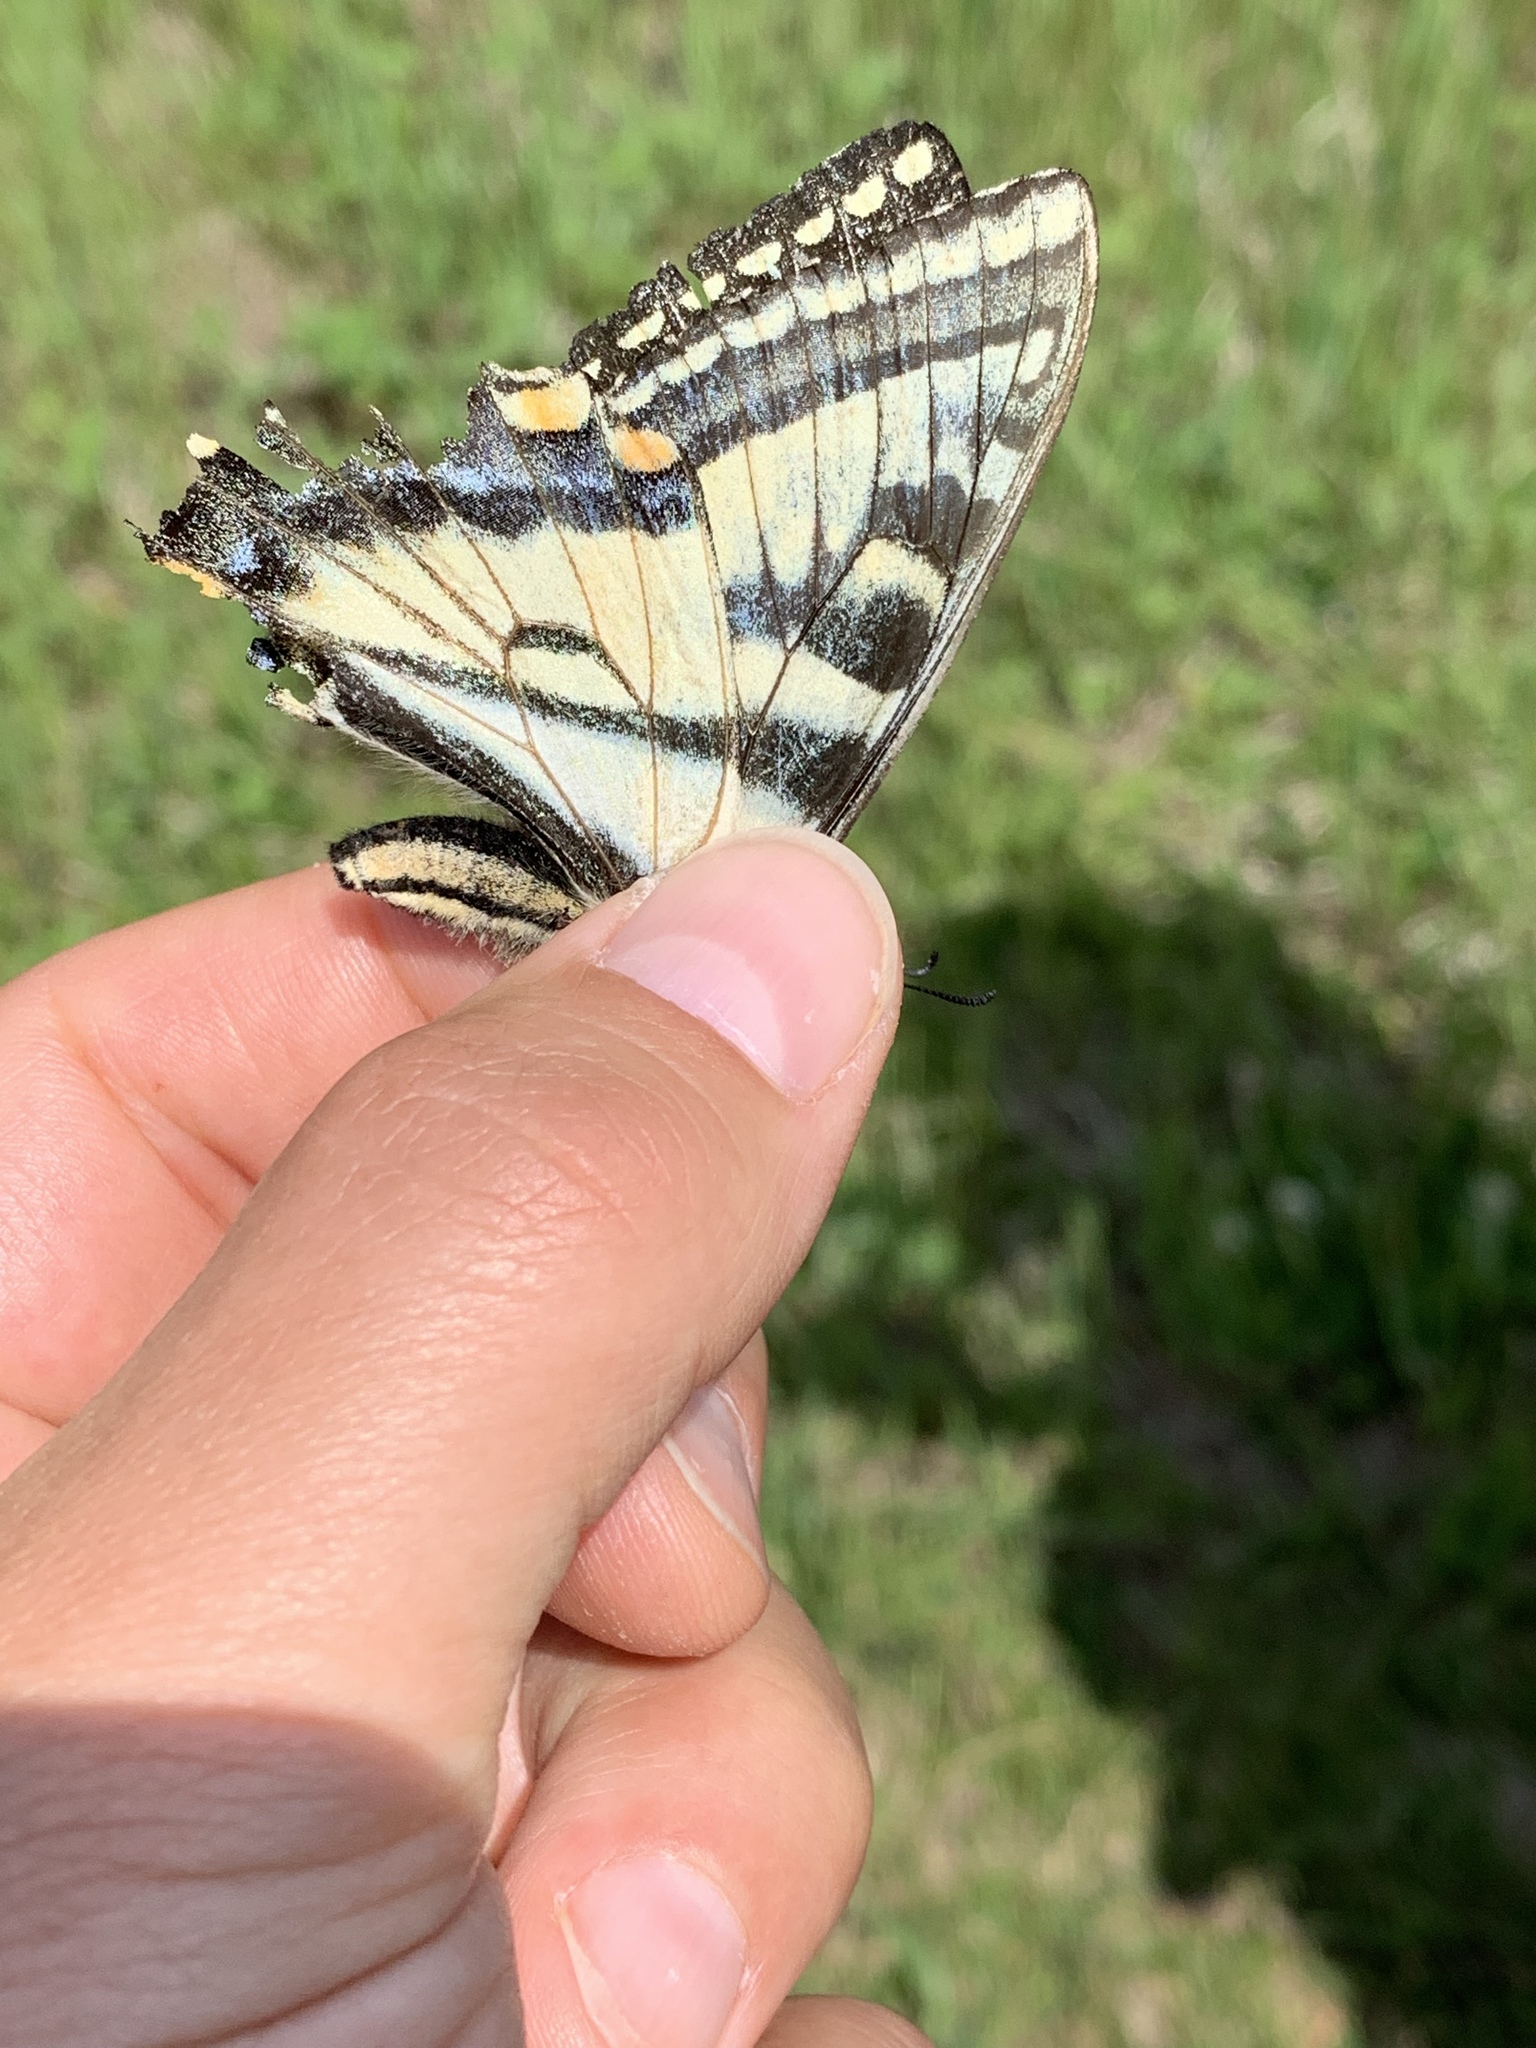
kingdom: Animalia
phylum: Arthropoda
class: Insecta
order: Lepidoptera
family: Papilionidae
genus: Papilio
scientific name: Papilio canadensis
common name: Canadian tiger swallowtail
